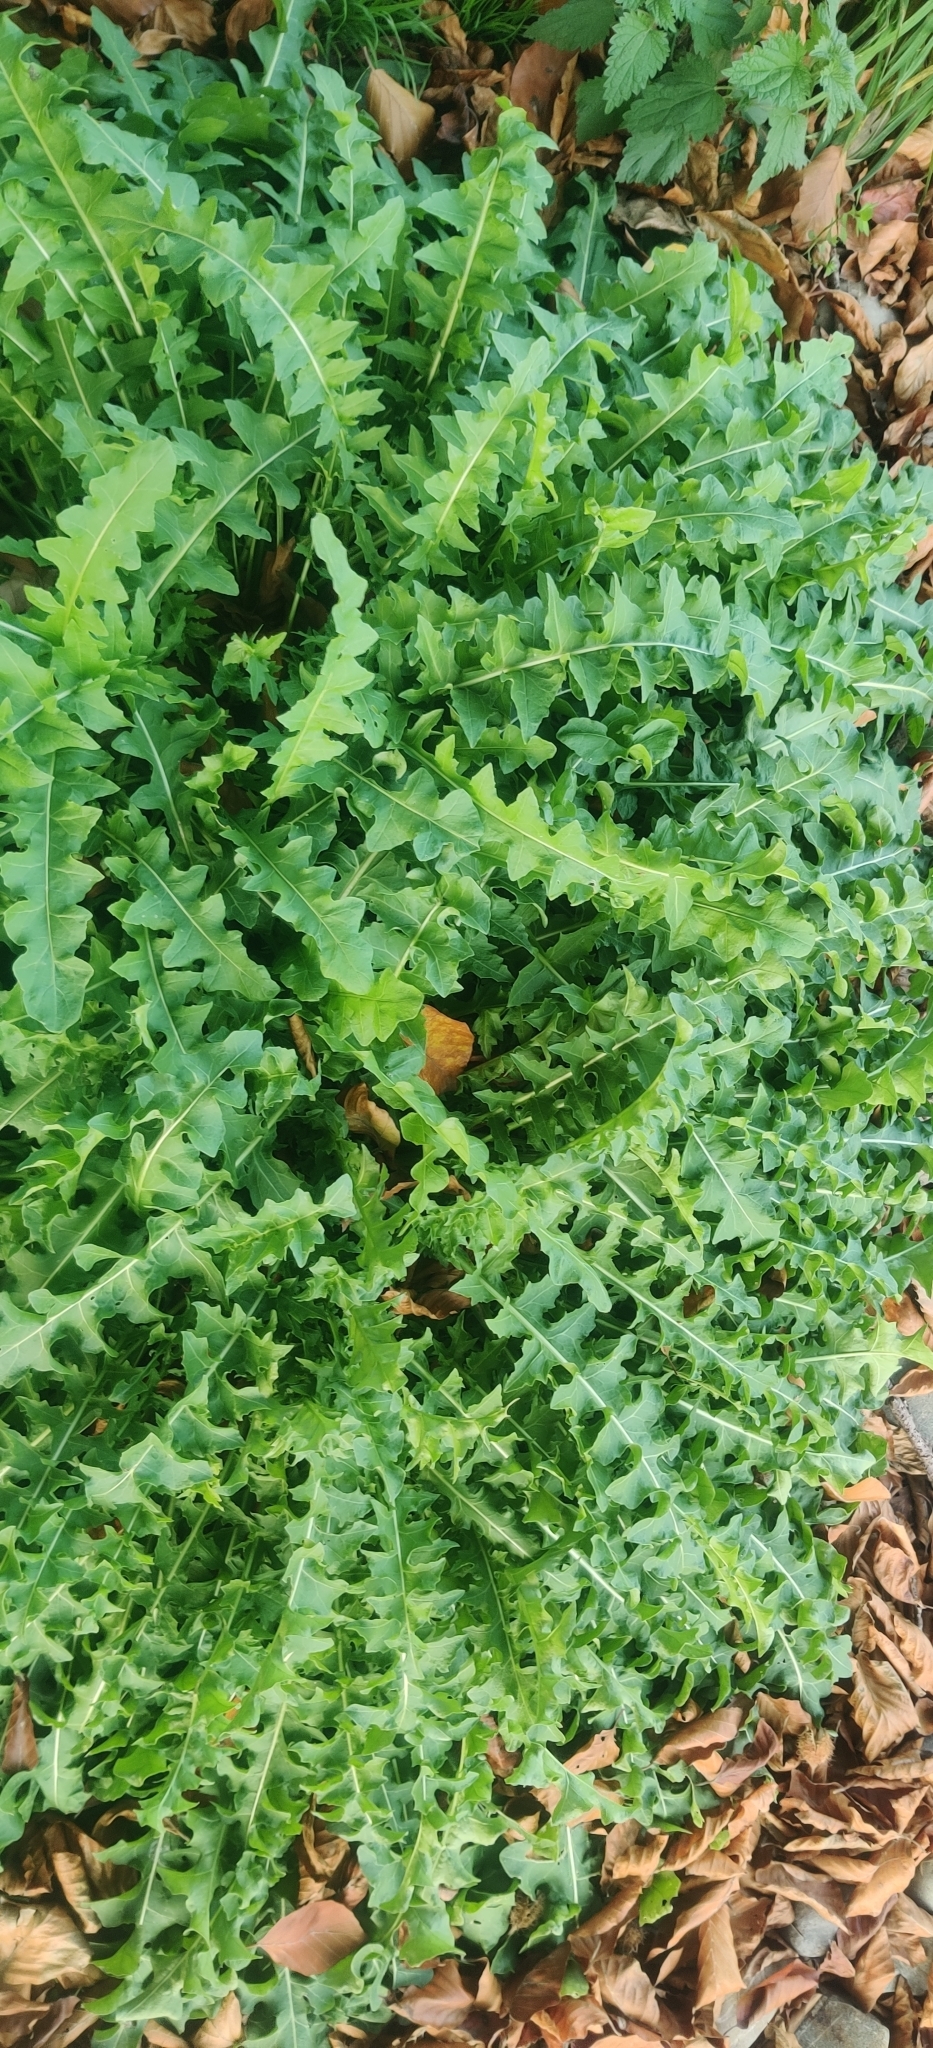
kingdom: Plantae
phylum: Tracheophyta
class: Magnoliopsida
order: Brassicales
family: Brassicaceae
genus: Sisymbrium
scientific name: Sisymbrium chrysanthum
